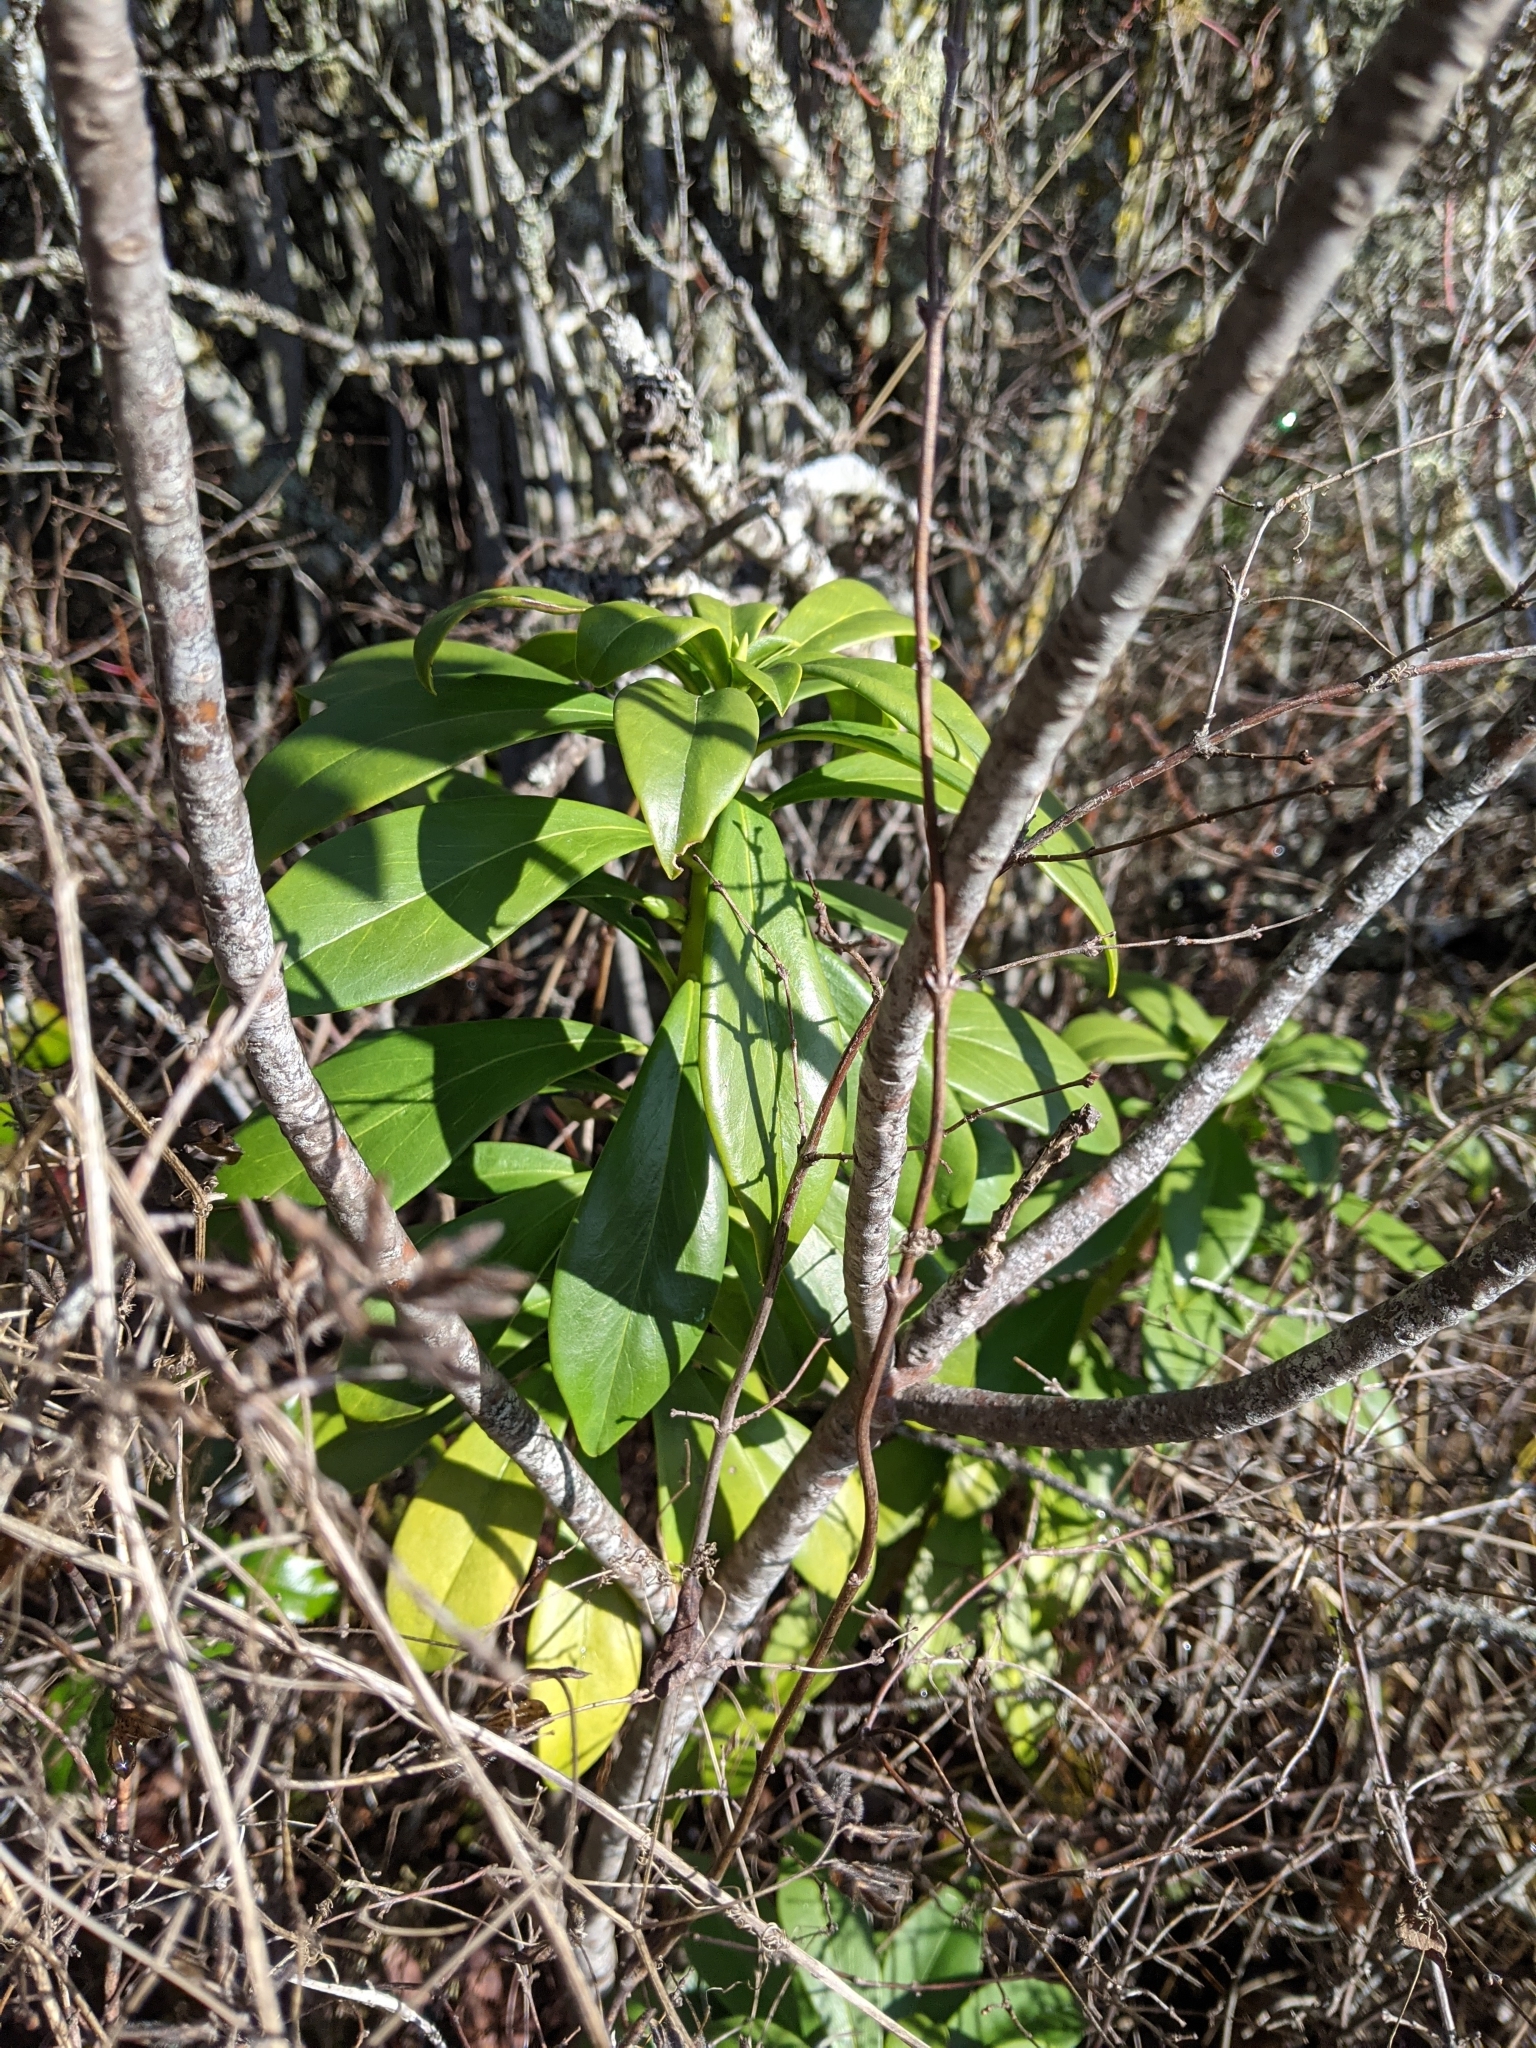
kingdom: Plantae
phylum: Tracheophyta
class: Magnoliopsida
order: Malvales
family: Thymelaeaceae
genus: Daphne
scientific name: Daphne laureola
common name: Spurge-laurel
